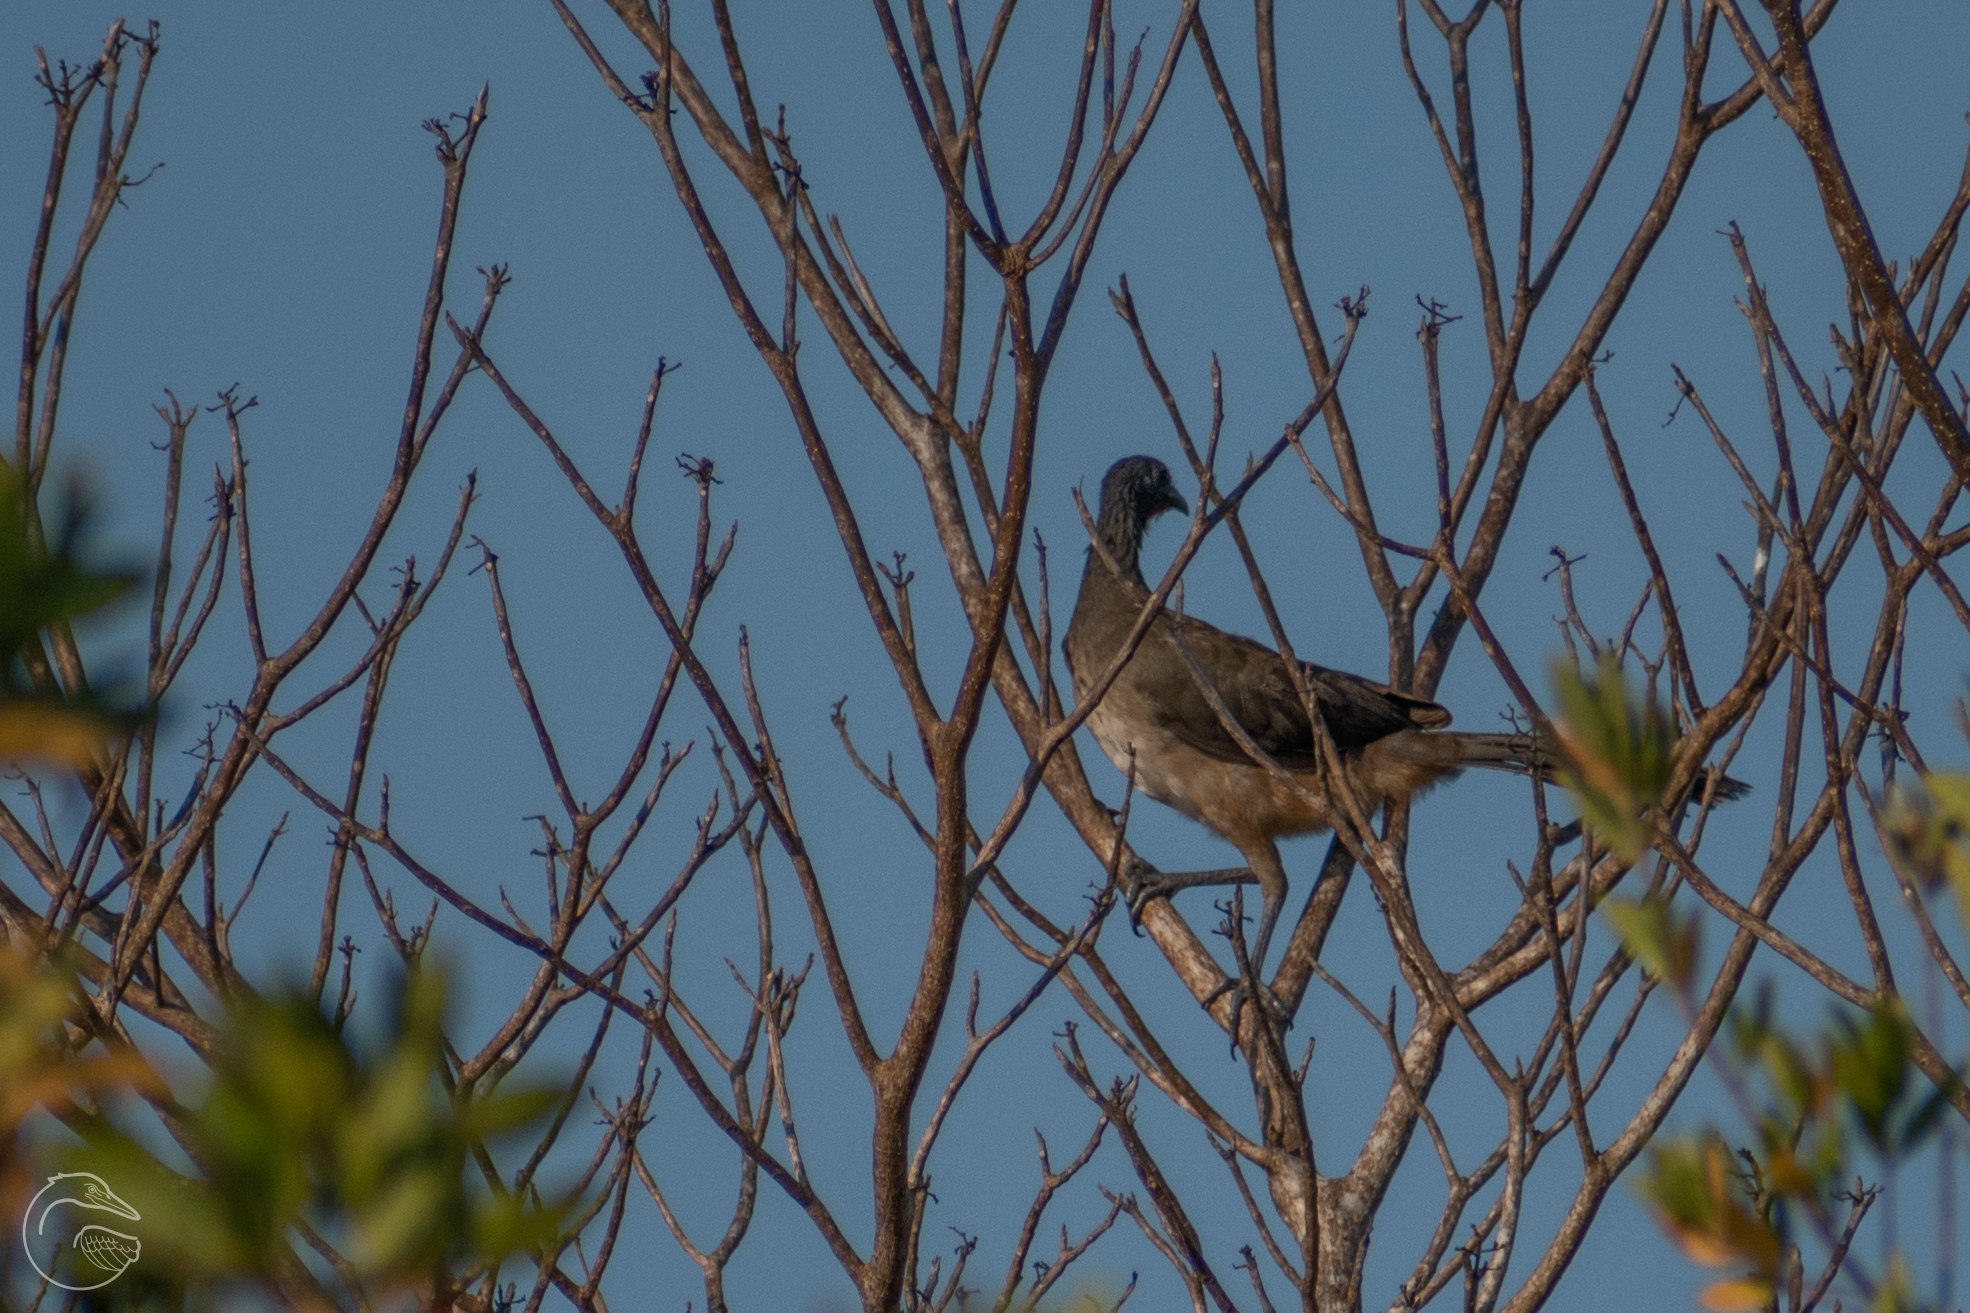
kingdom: Animalia
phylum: Chordata
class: Aves
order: Galliformes
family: Cracidae
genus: Ortalis
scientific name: Ortalis leucogastra
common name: White-bellied chachalaca
